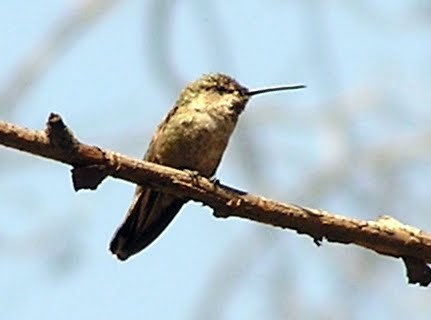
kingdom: Animalia
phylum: Chordata
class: Aves
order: Apodiformes
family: Trochilidae
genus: Calypte
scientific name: Calypte anna
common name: Anna's hummingbird
